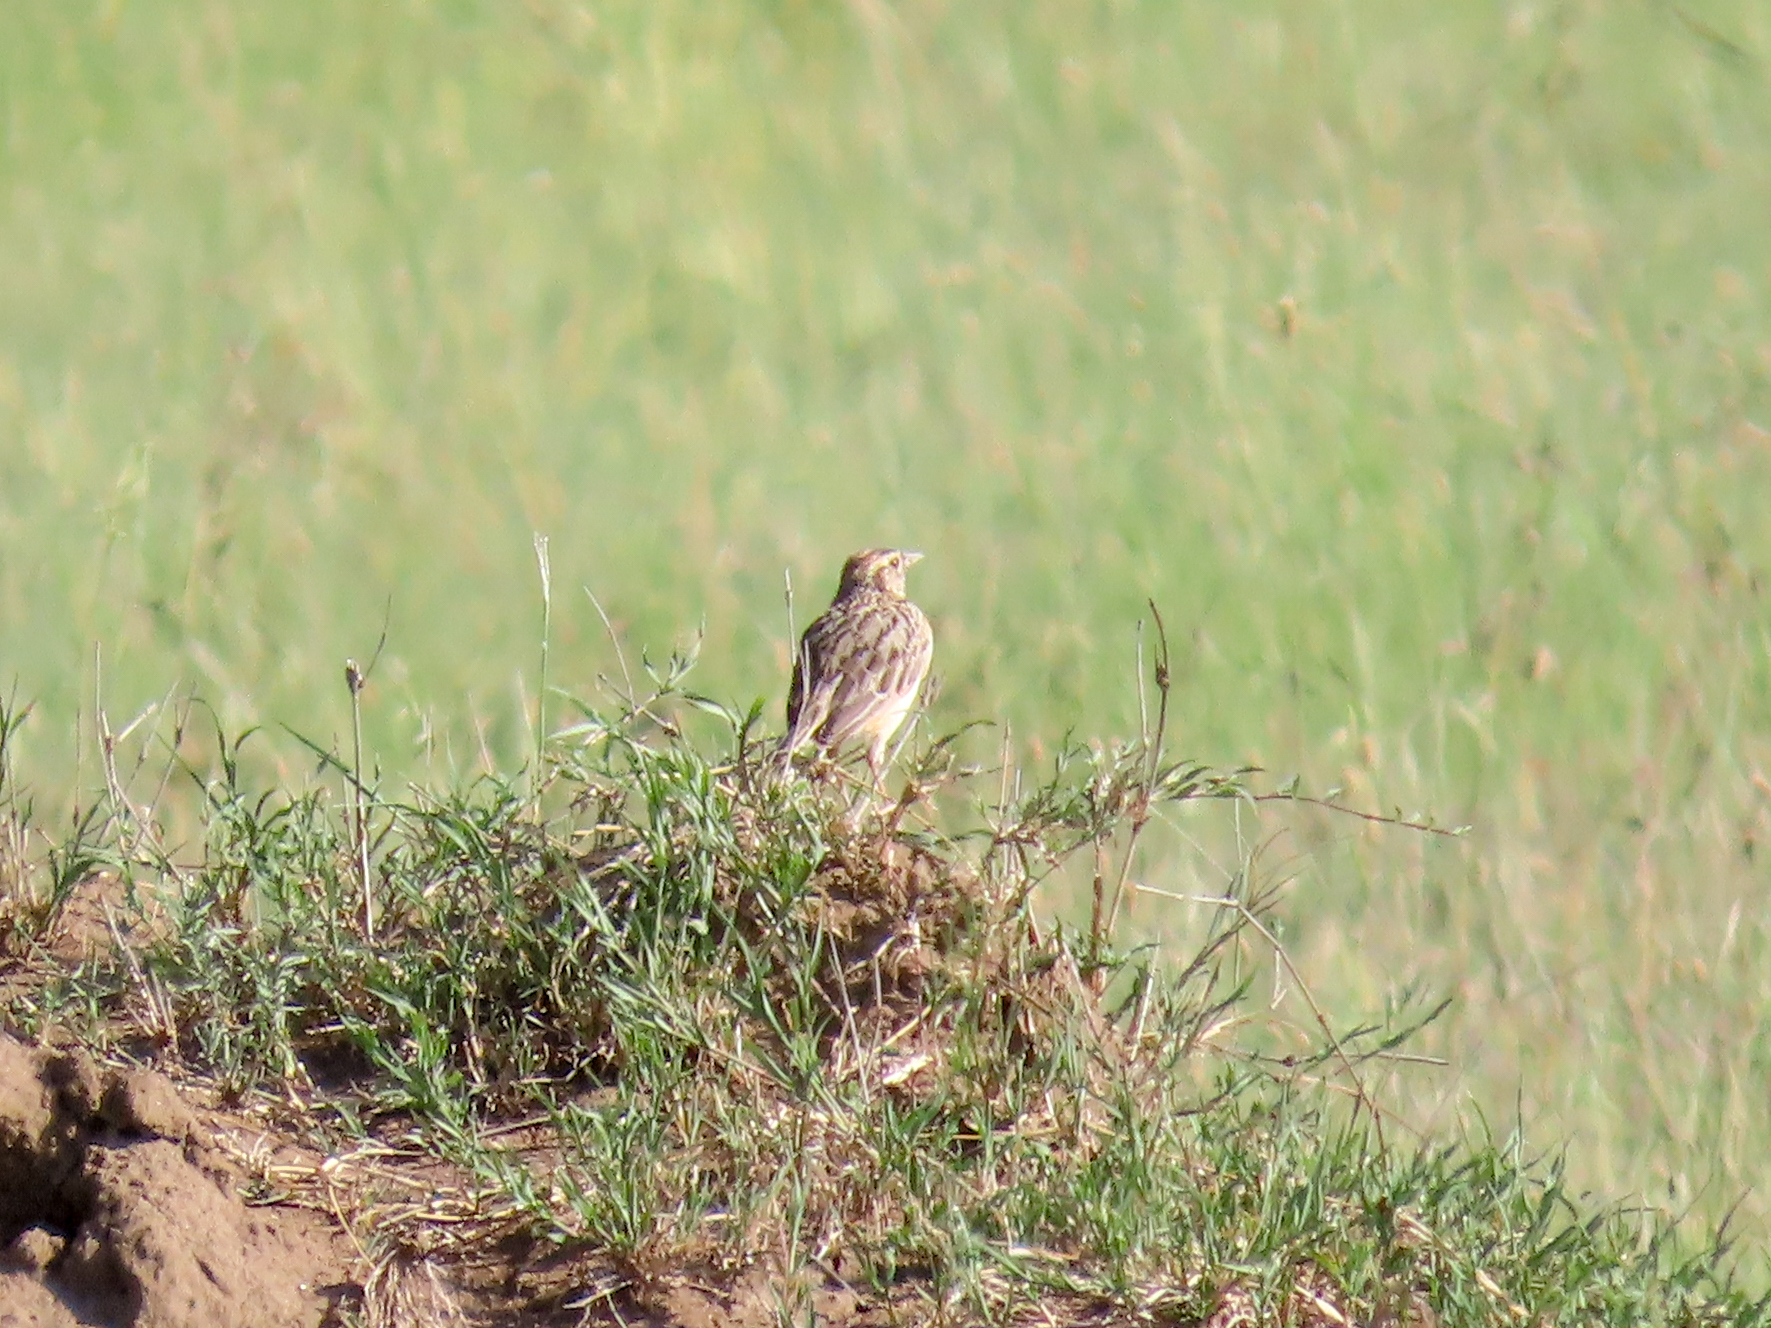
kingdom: Animalia
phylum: Chordata
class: Aves
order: Passeriformes
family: Alaudidae
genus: Mirafra
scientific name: Mirafra africana
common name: Rufous-naped lark
